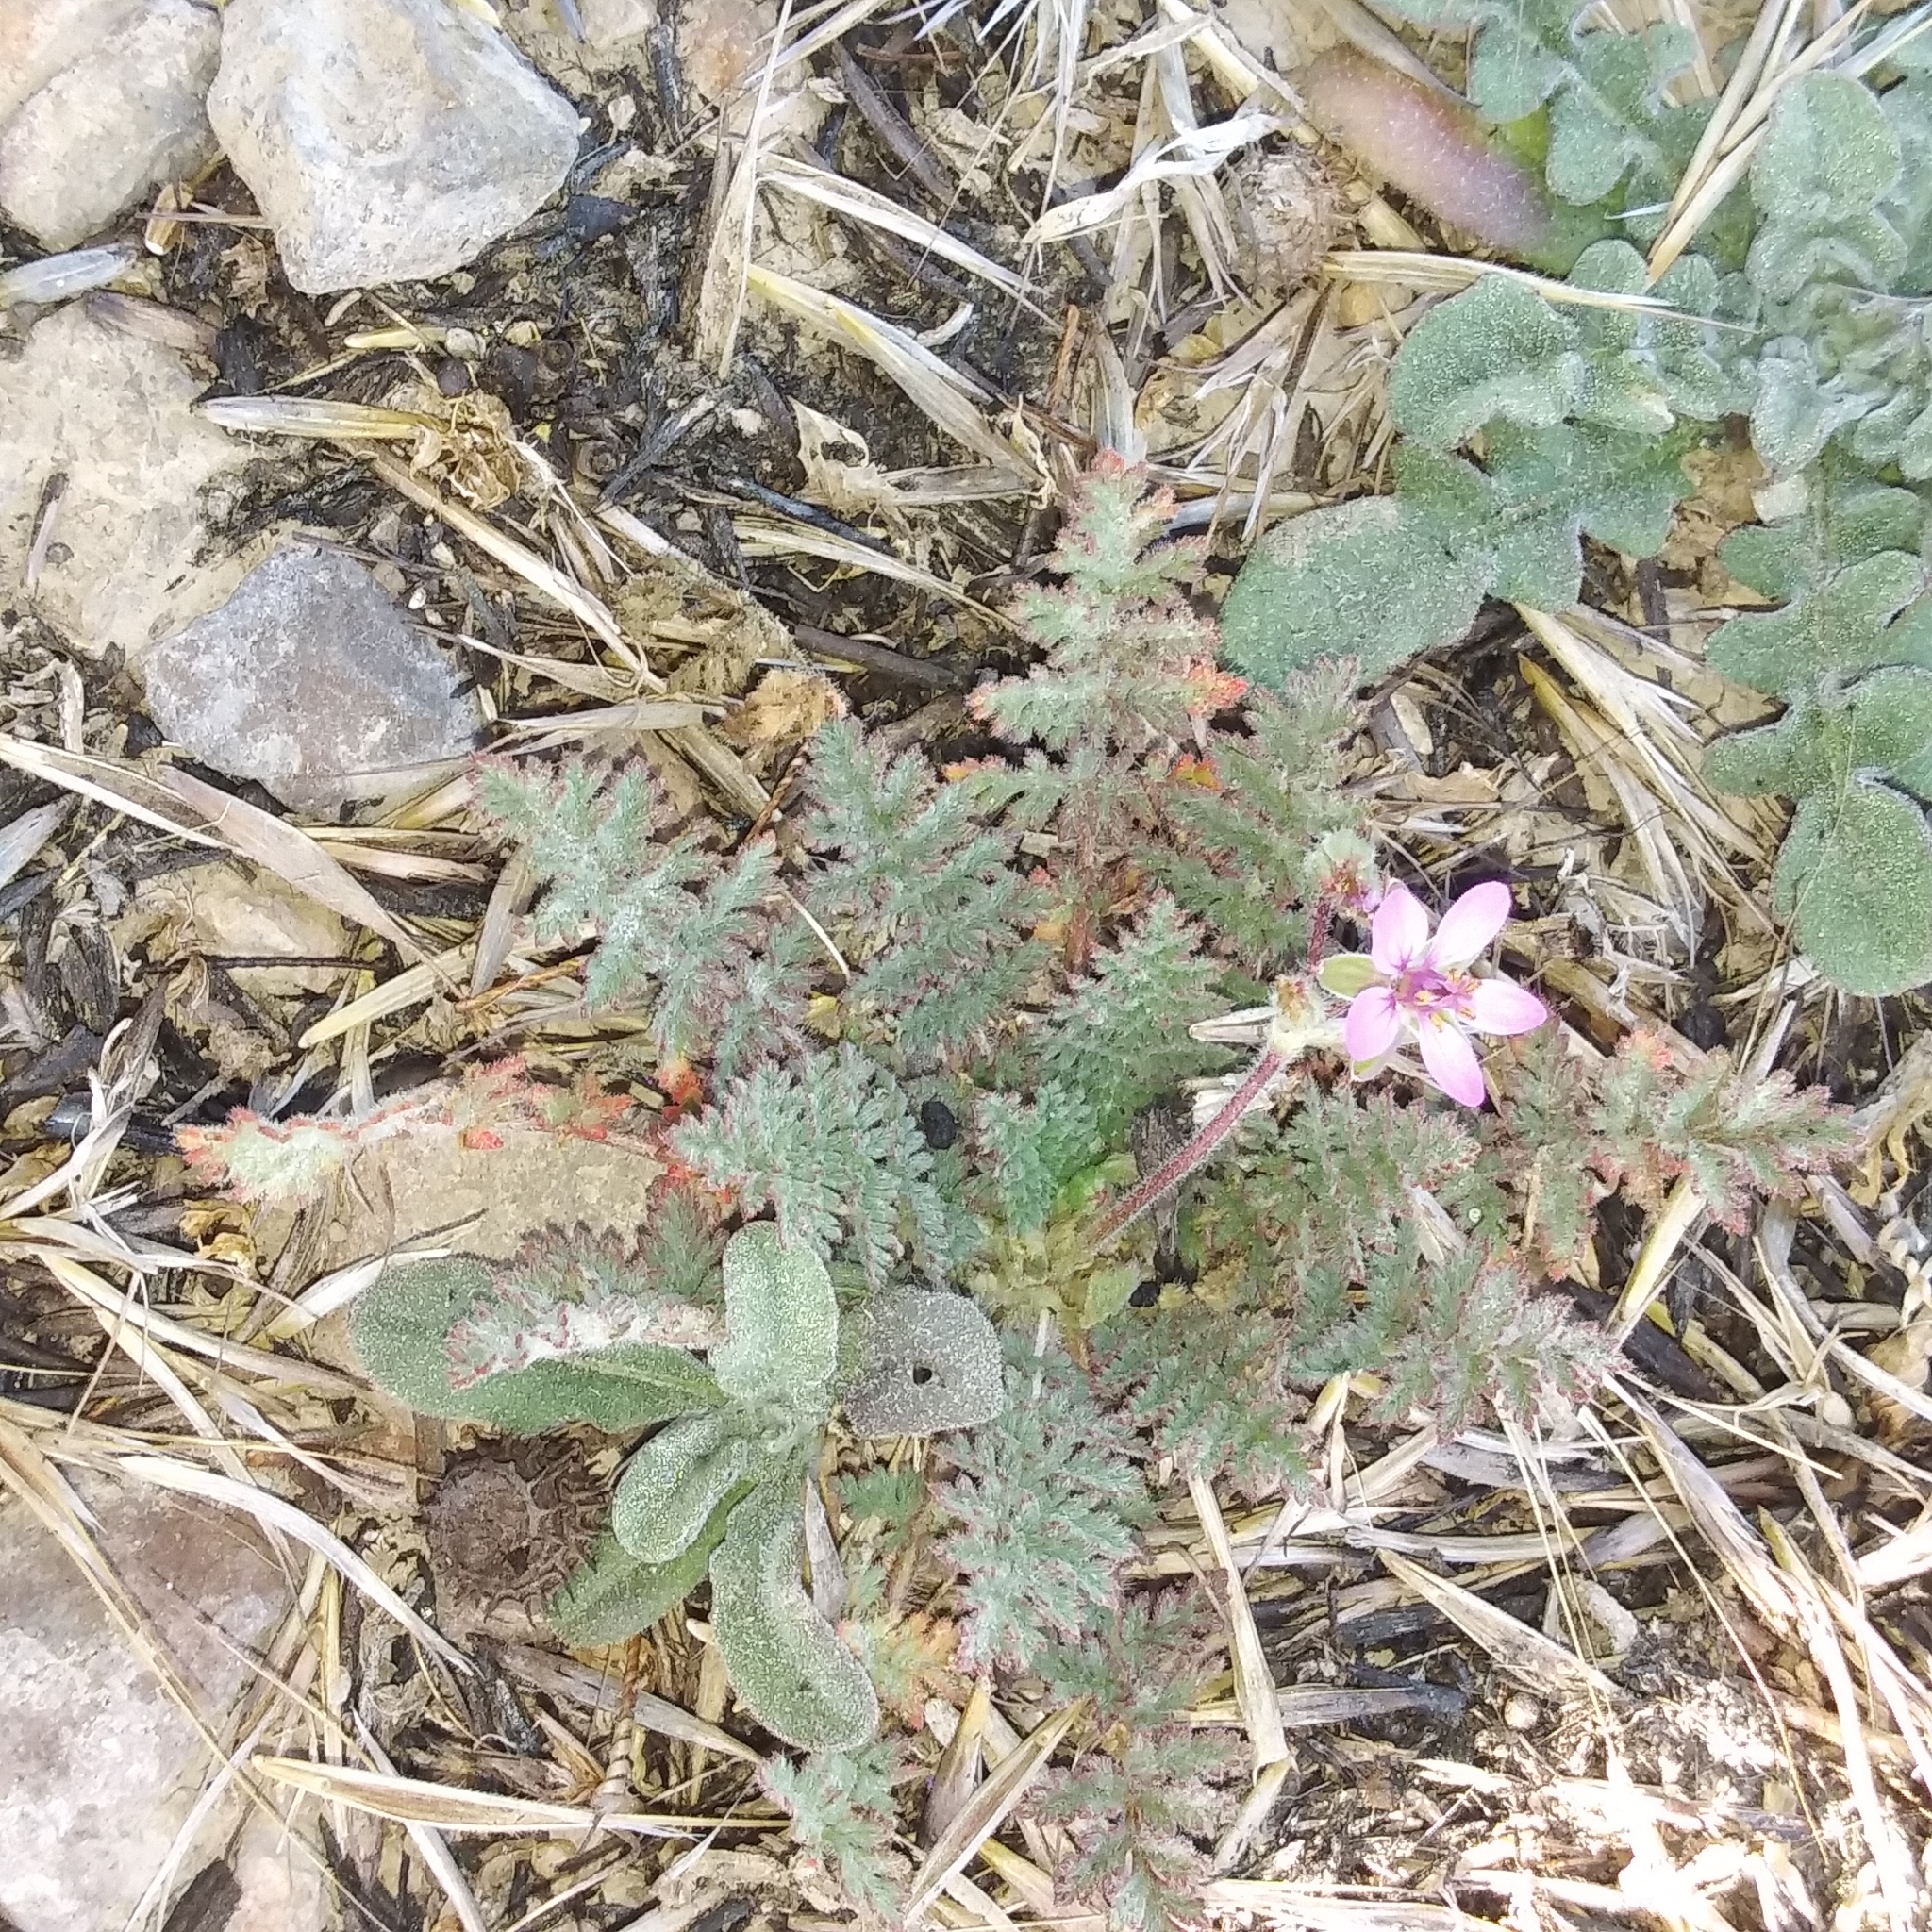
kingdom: Plantae
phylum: Tracheophyta
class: Magnoliopsida
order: Geraniales
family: Geraniaceae
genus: Erodium
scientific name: Erodium cicutarium
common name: Common stork's-bill
